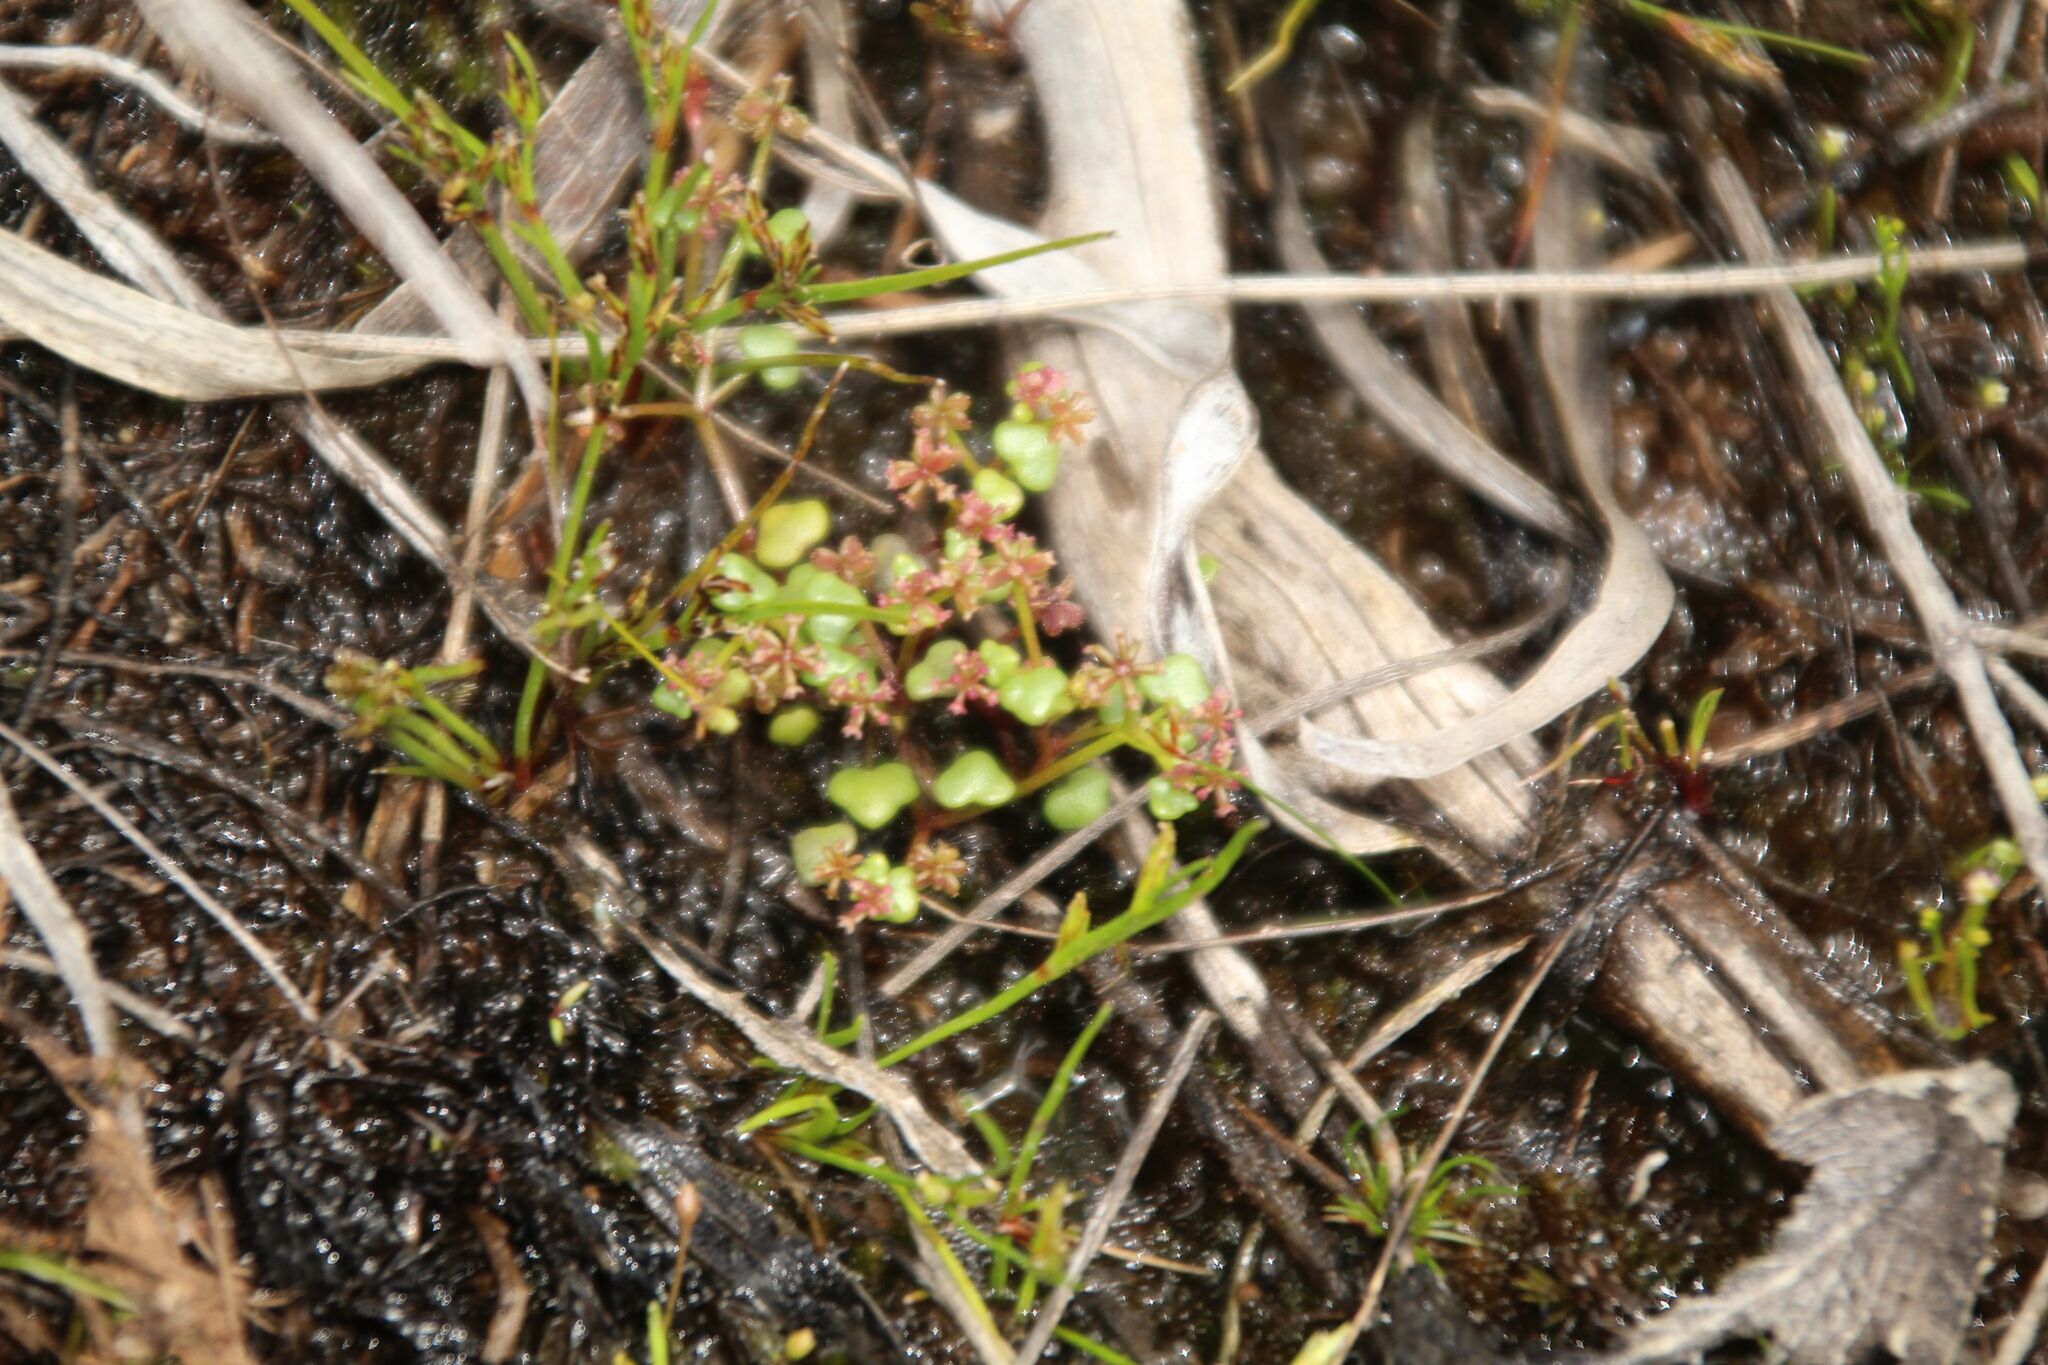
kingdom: Plantae
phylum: Tracheophyta
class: Magnoliopsida
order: Apiales
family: Araliaceae
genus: Hydrocotyle
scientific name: Hydrocotyle alata
